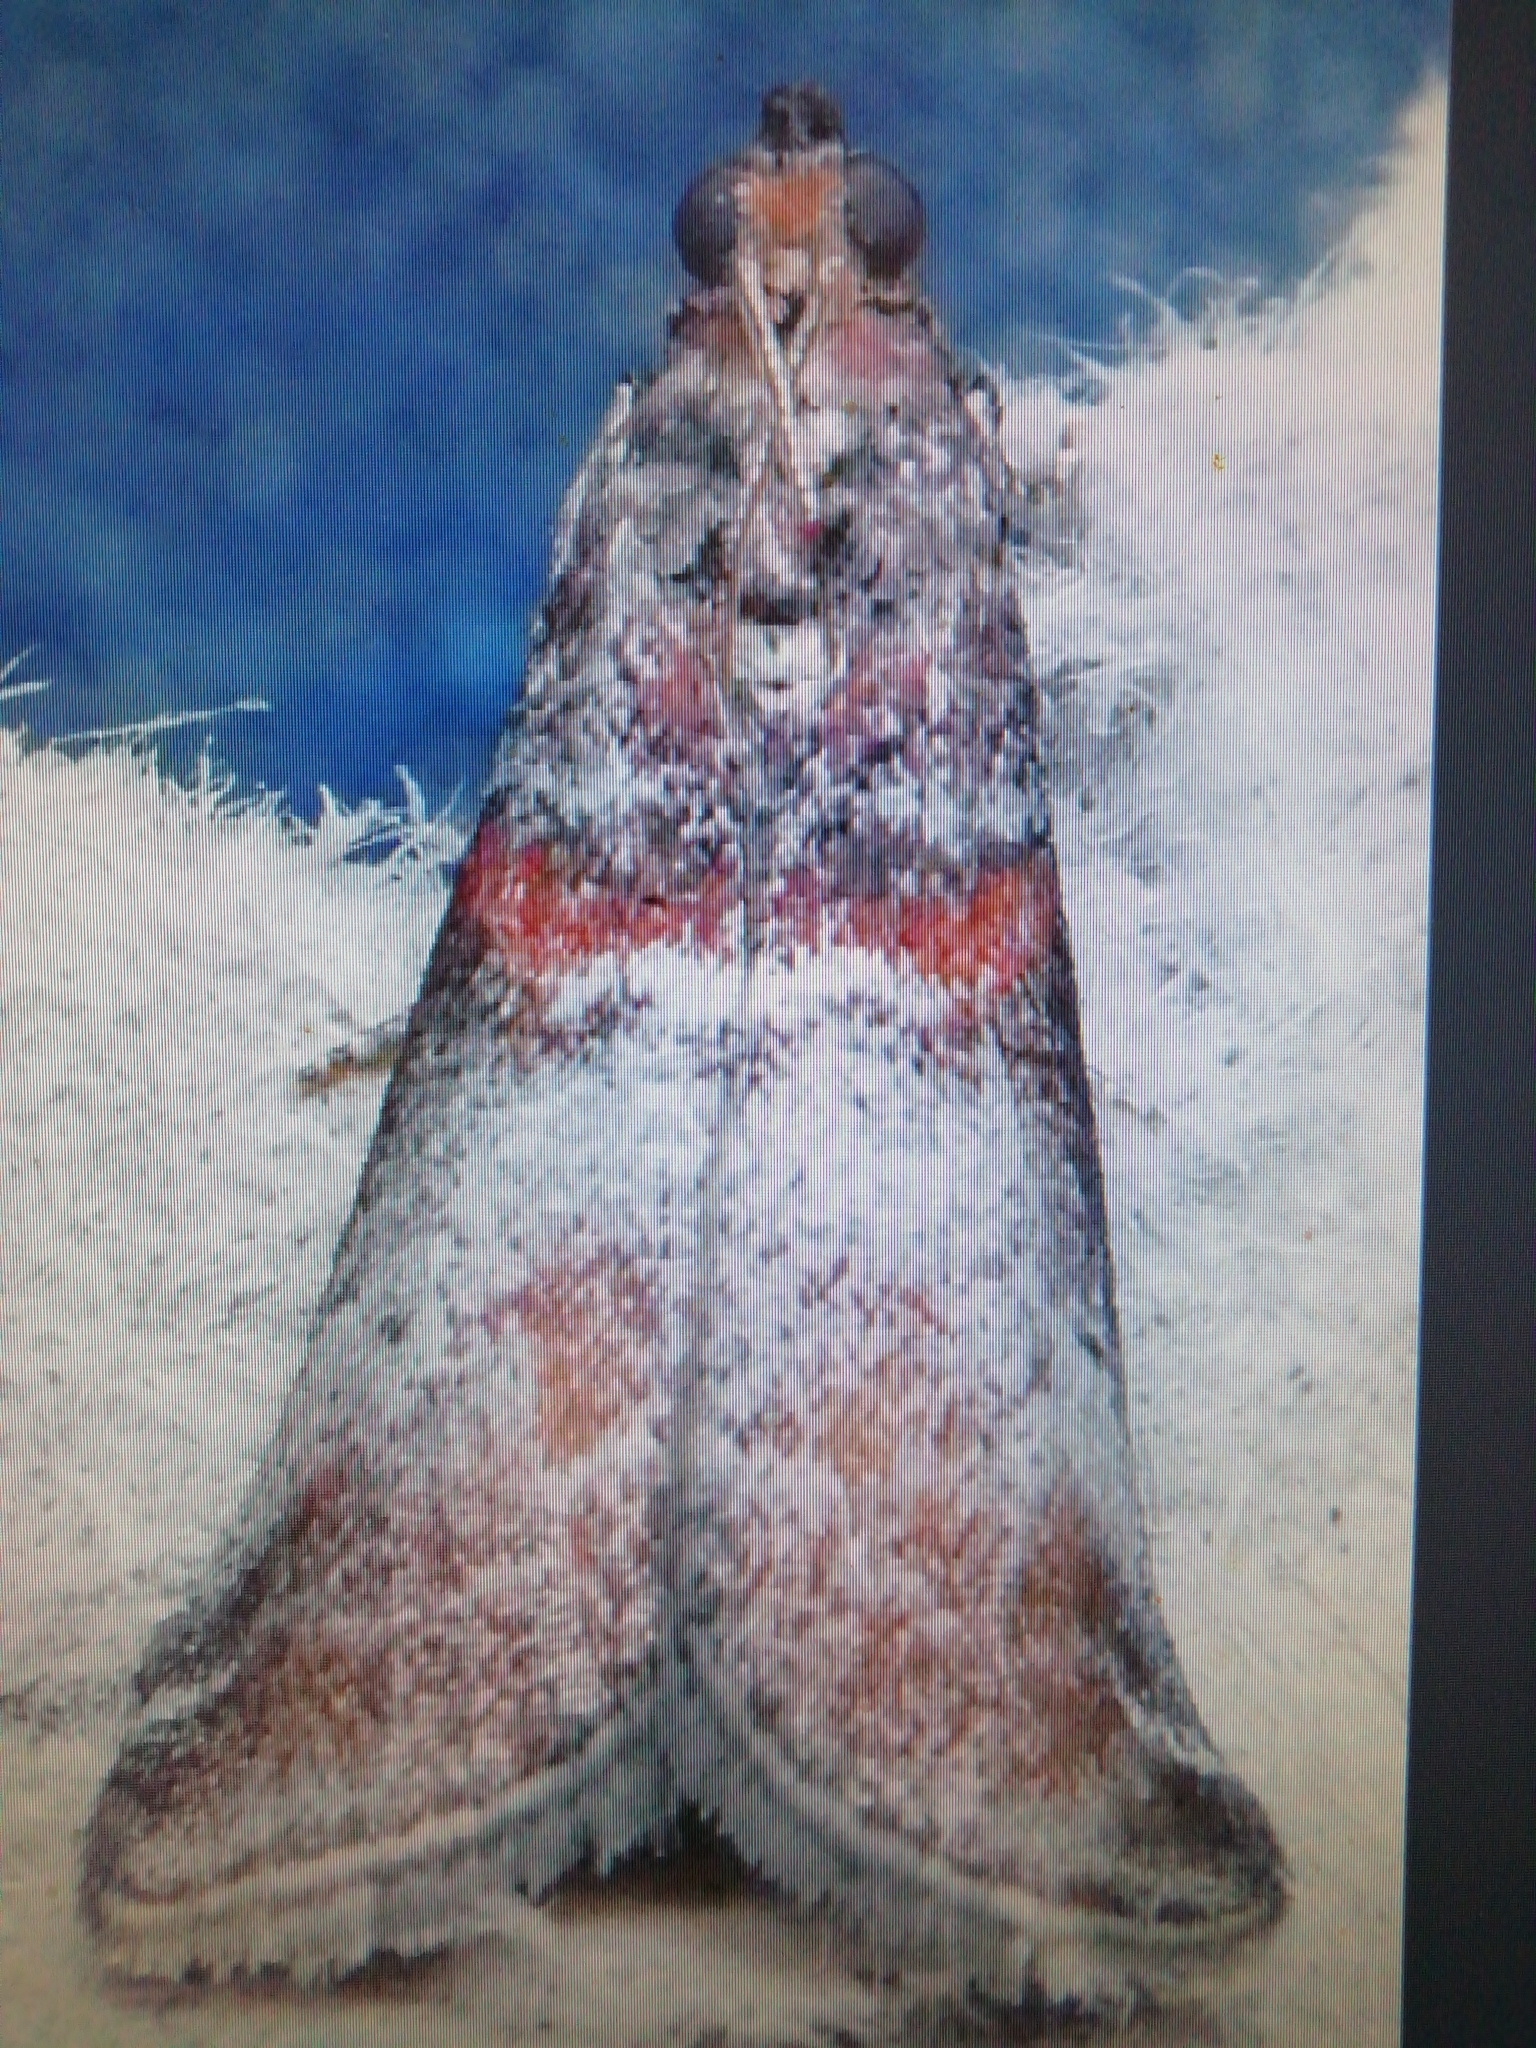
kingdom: Animalia
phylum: Arthropoda
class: Insecta
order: Lepidoptera
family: Pyralidae
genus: Acrobasis
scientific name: Acrobasis advenella
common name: Grey knot-horn
